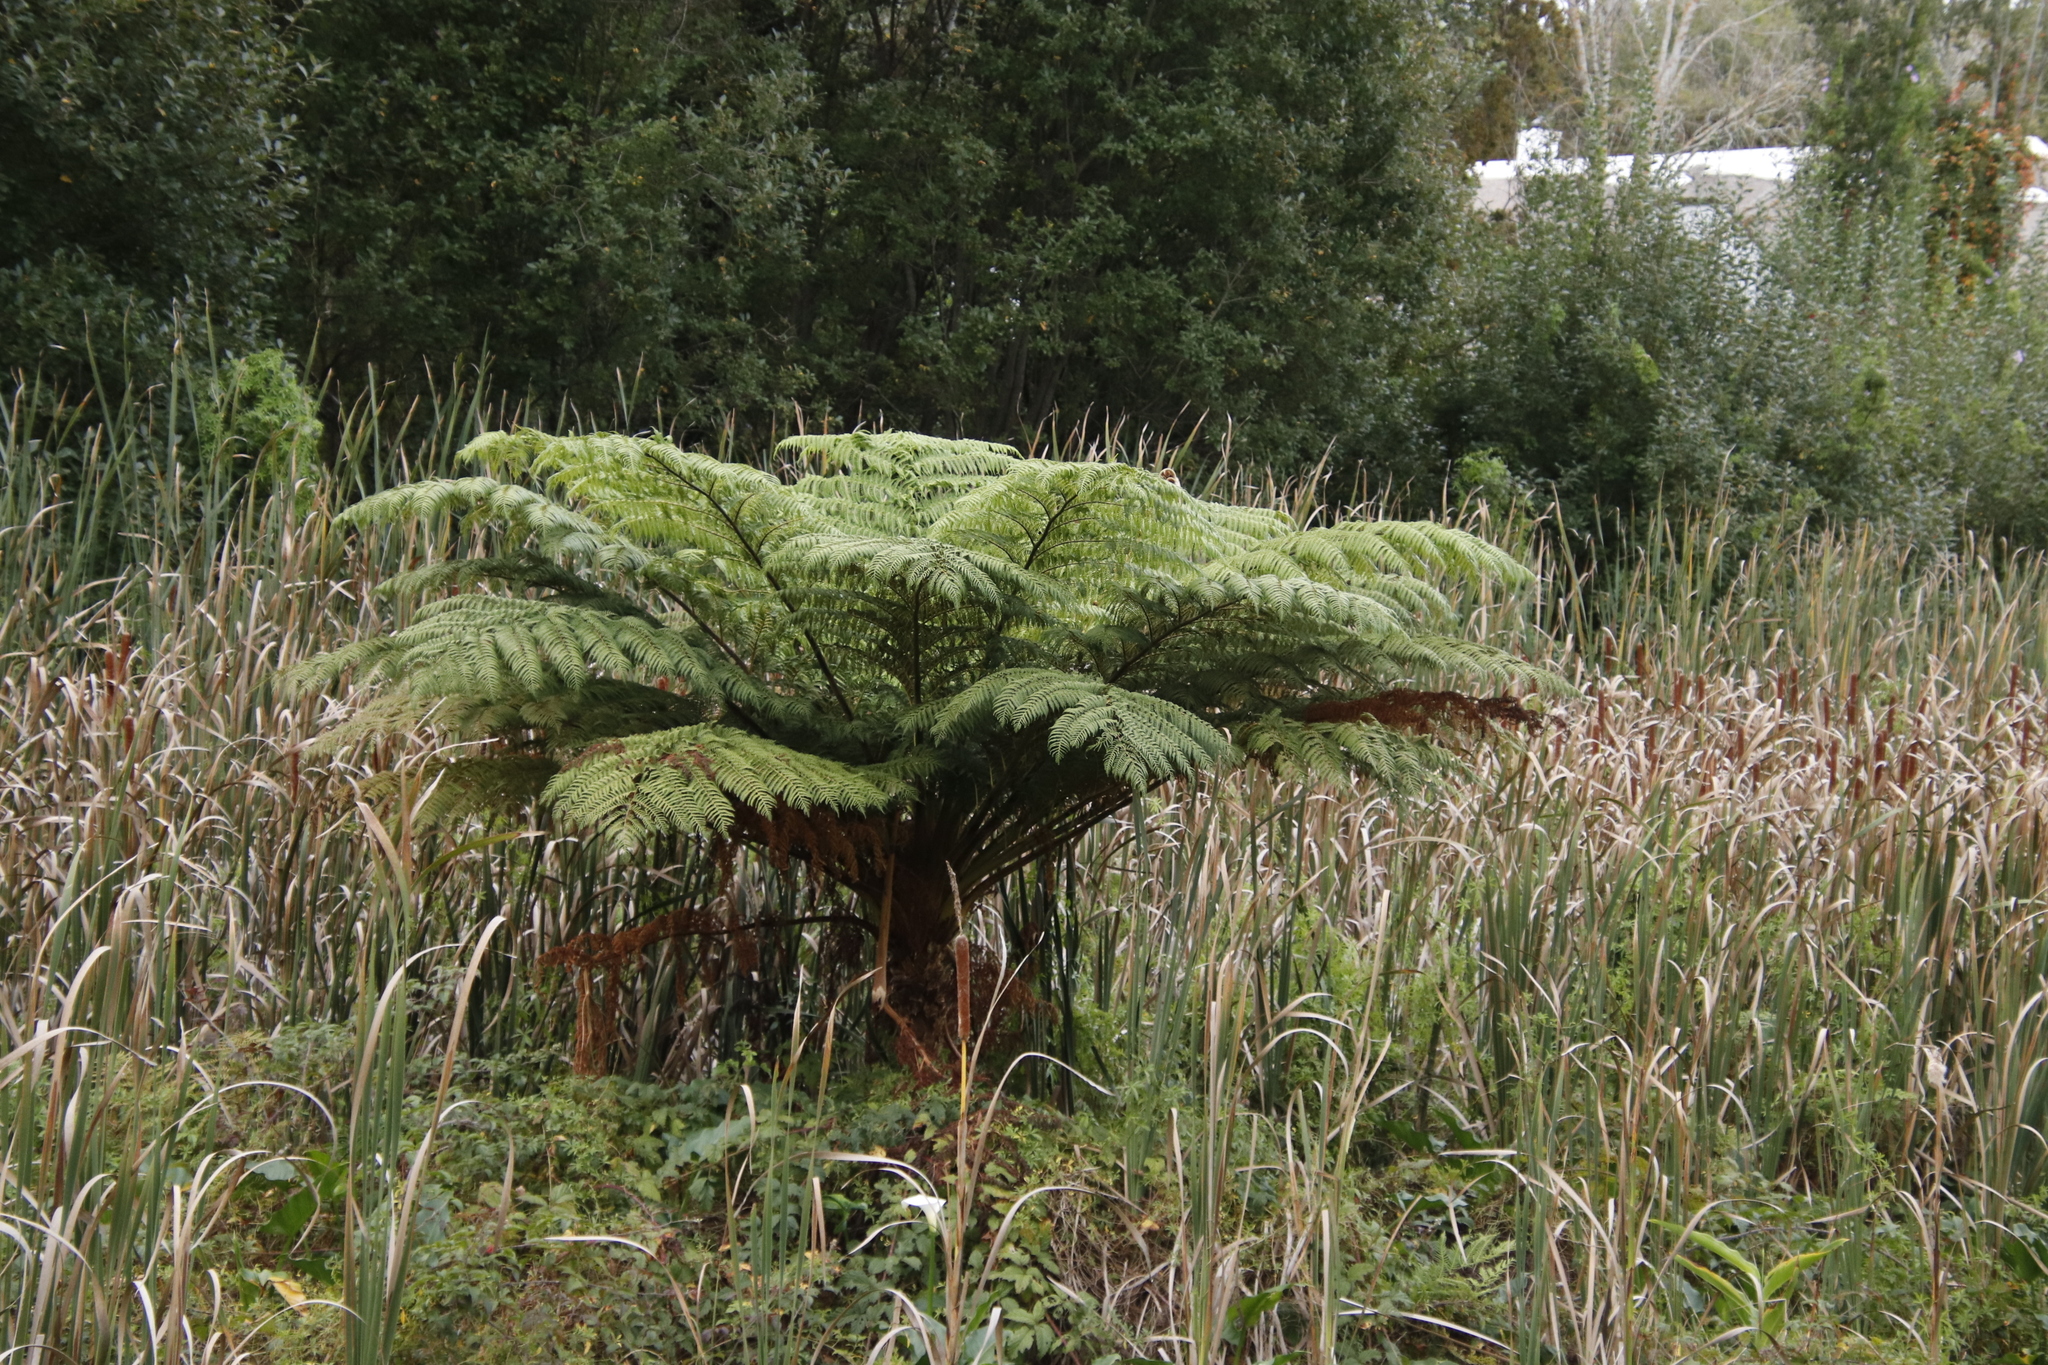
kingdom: Plantae
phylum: Tracheophyta
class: Polypodiopsida
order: Cyatheales
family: Cyatheaceae
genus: Sphaeropteris
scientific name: Sphaeropteris cooperi
